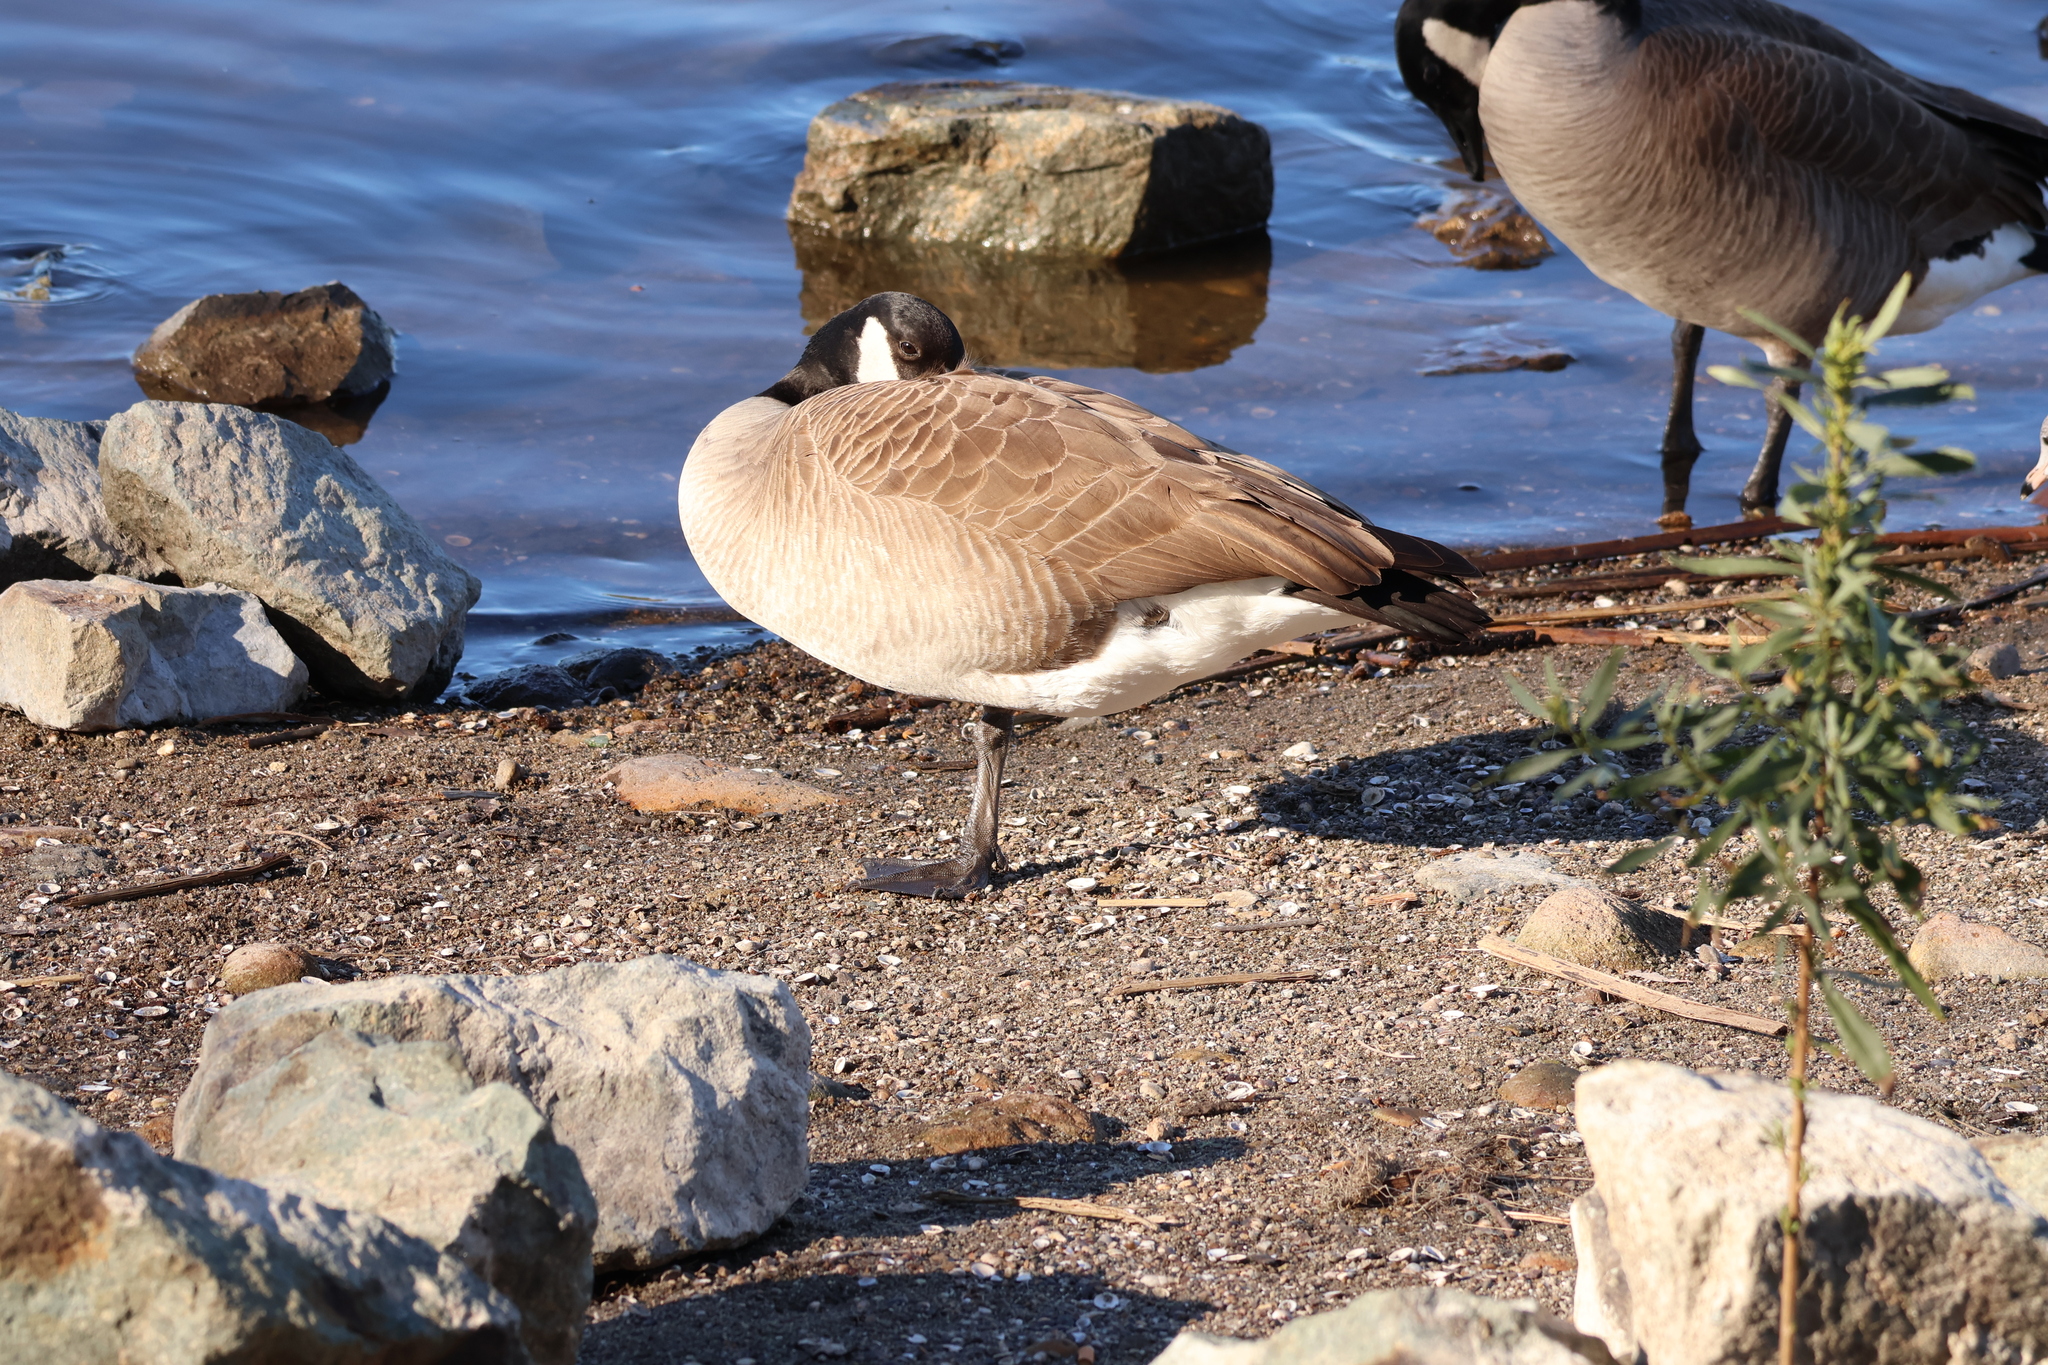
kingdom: Animalia
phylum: Chordata
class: Aves
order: Anseriformes
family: Anatidae
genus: Branta
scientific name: Branta canadensis
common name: Canada goose
